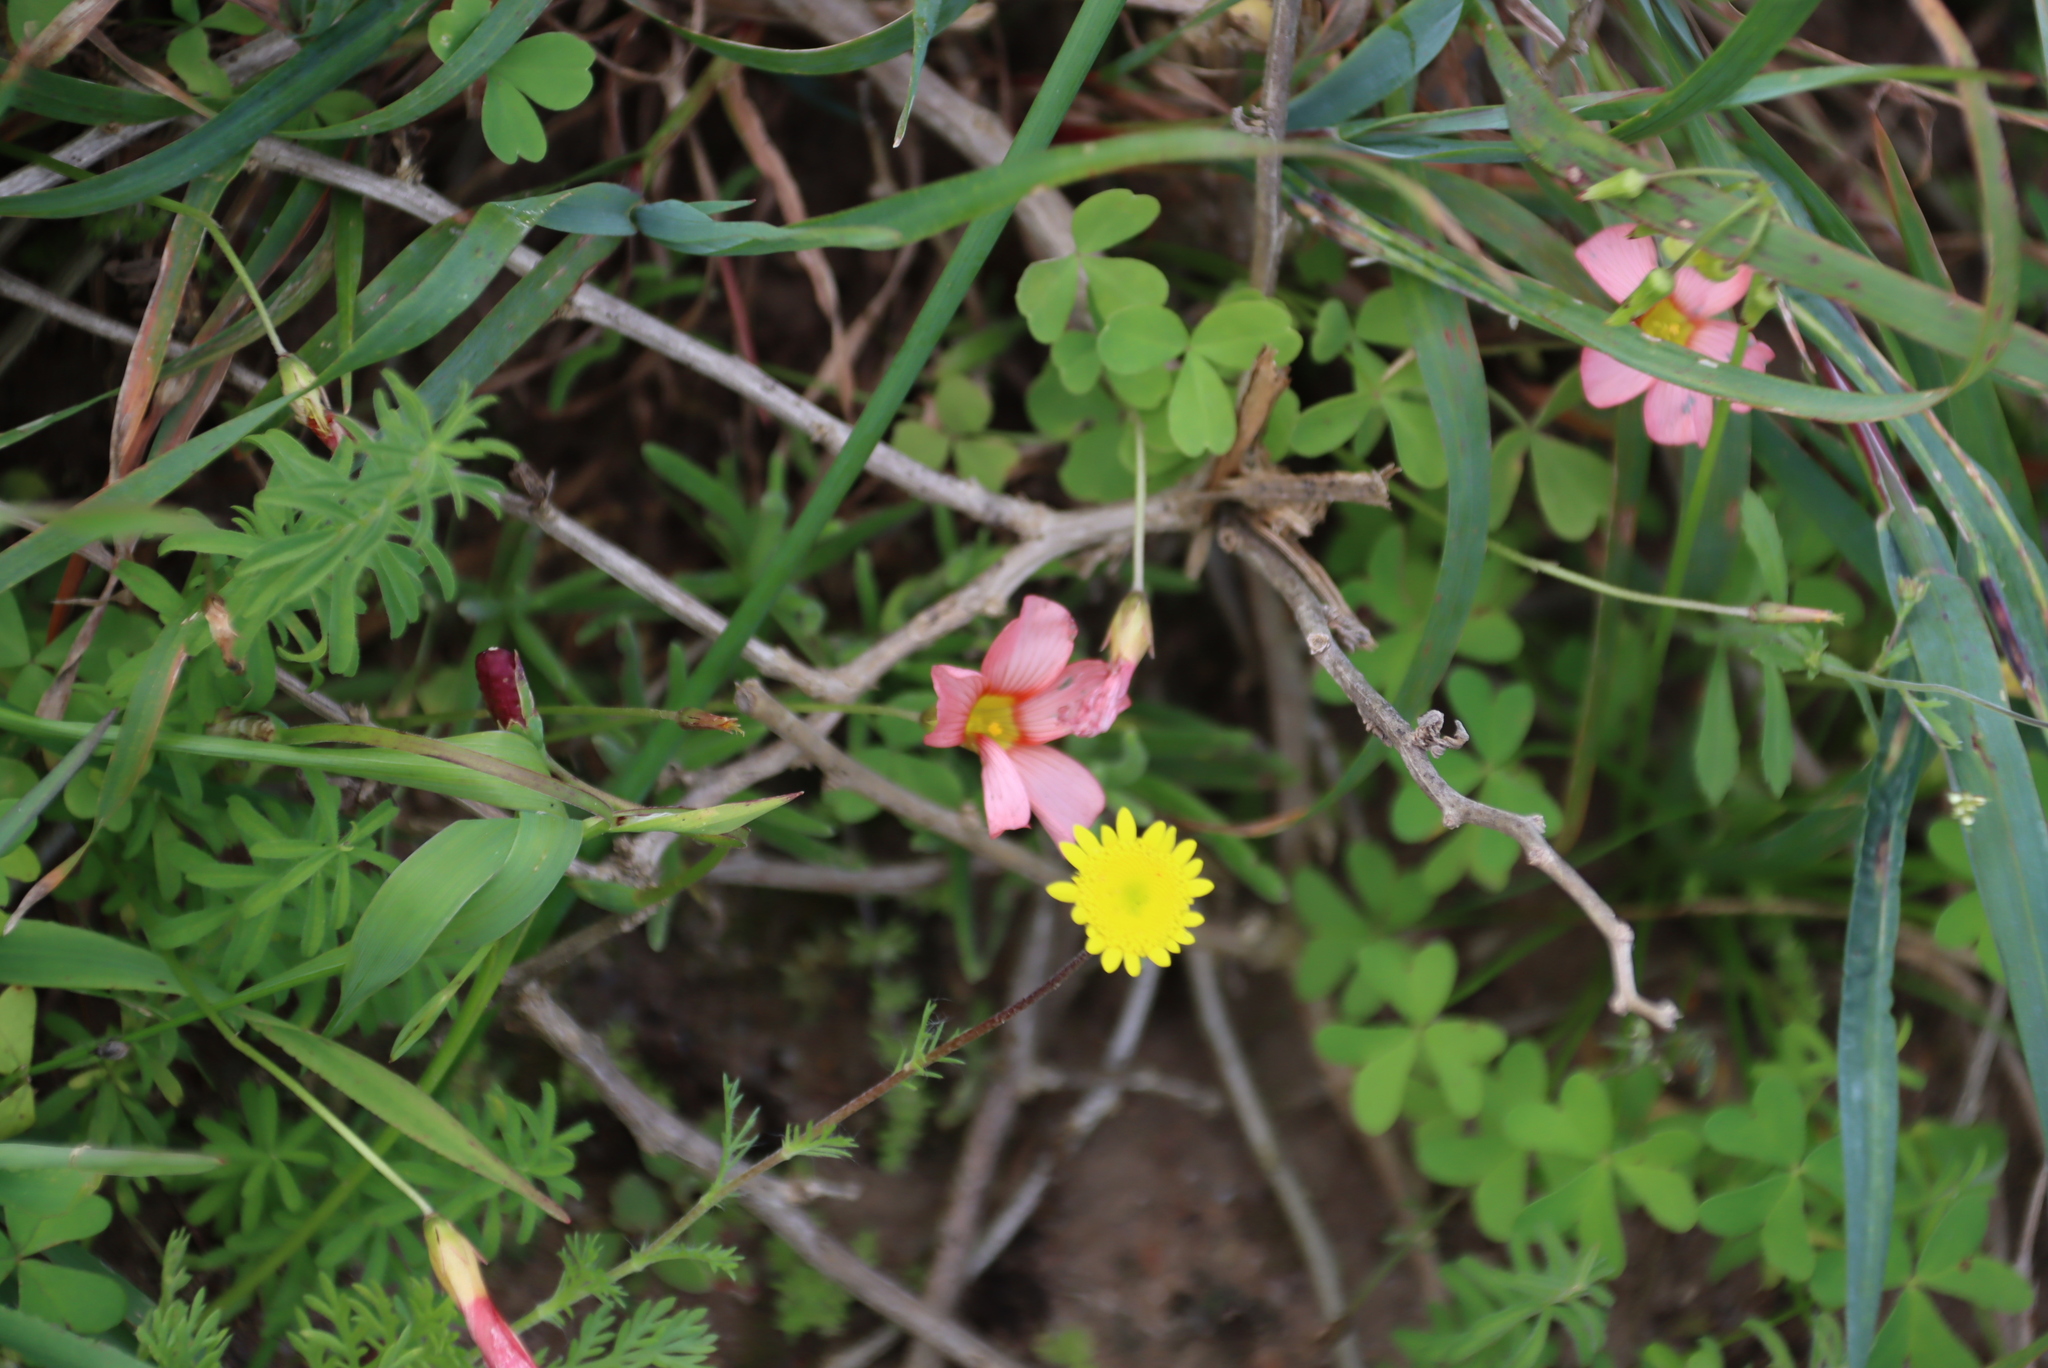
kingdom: Plantae
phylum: Tracheophyta
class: Magnoliopsida
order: Oxalidales
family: Oxalidaceae
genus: Oxalis
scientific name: Oxalis obtusa
